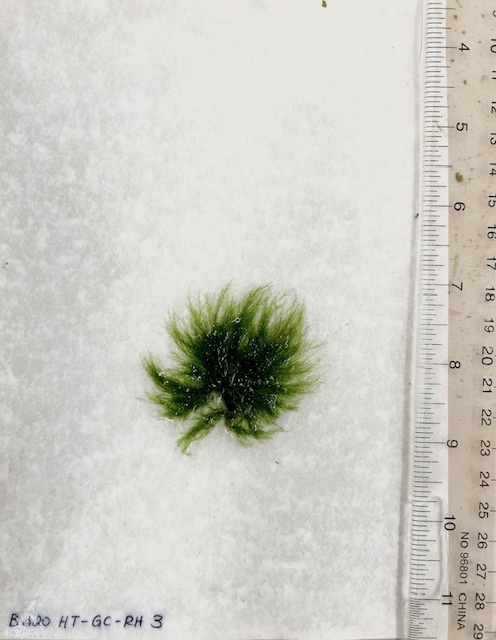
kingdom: Plantae
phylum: Chlorophyta
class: Ulvophyceae
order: Ulotrichales
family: Ulotrichaceae
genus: Acrosiphonia
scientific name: Acrosiphonia arcta
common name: Green tarantula weed
